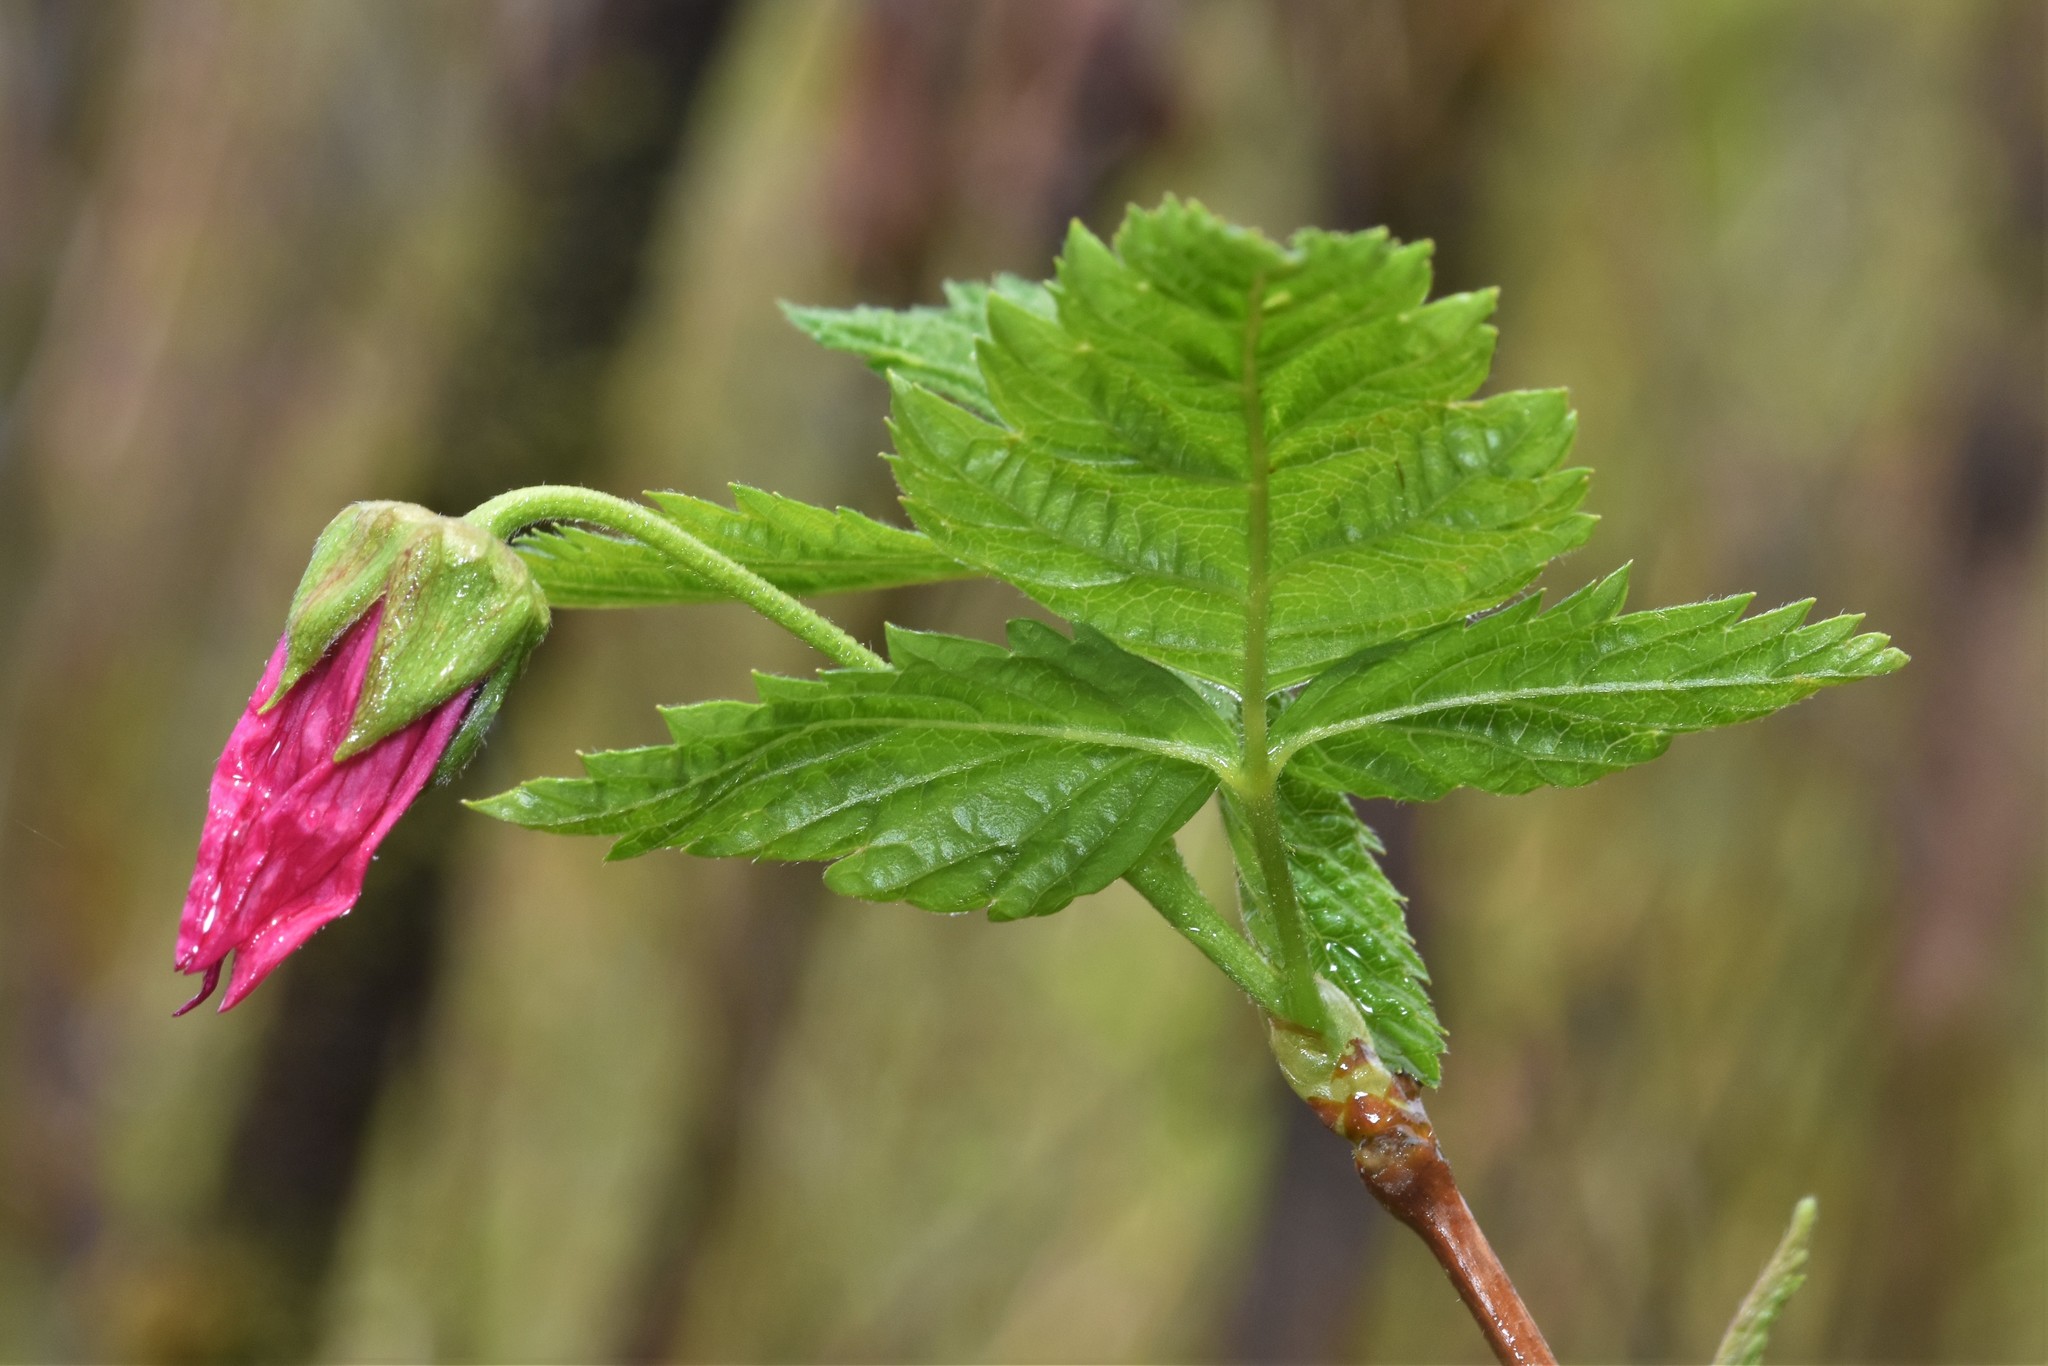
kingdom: Plantae
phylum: Tracheophyta
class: Magnoliopsida
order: Rosales
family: Rosaceae
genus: Rubus
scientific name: Rubus spectabilis
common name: Salmonberry
